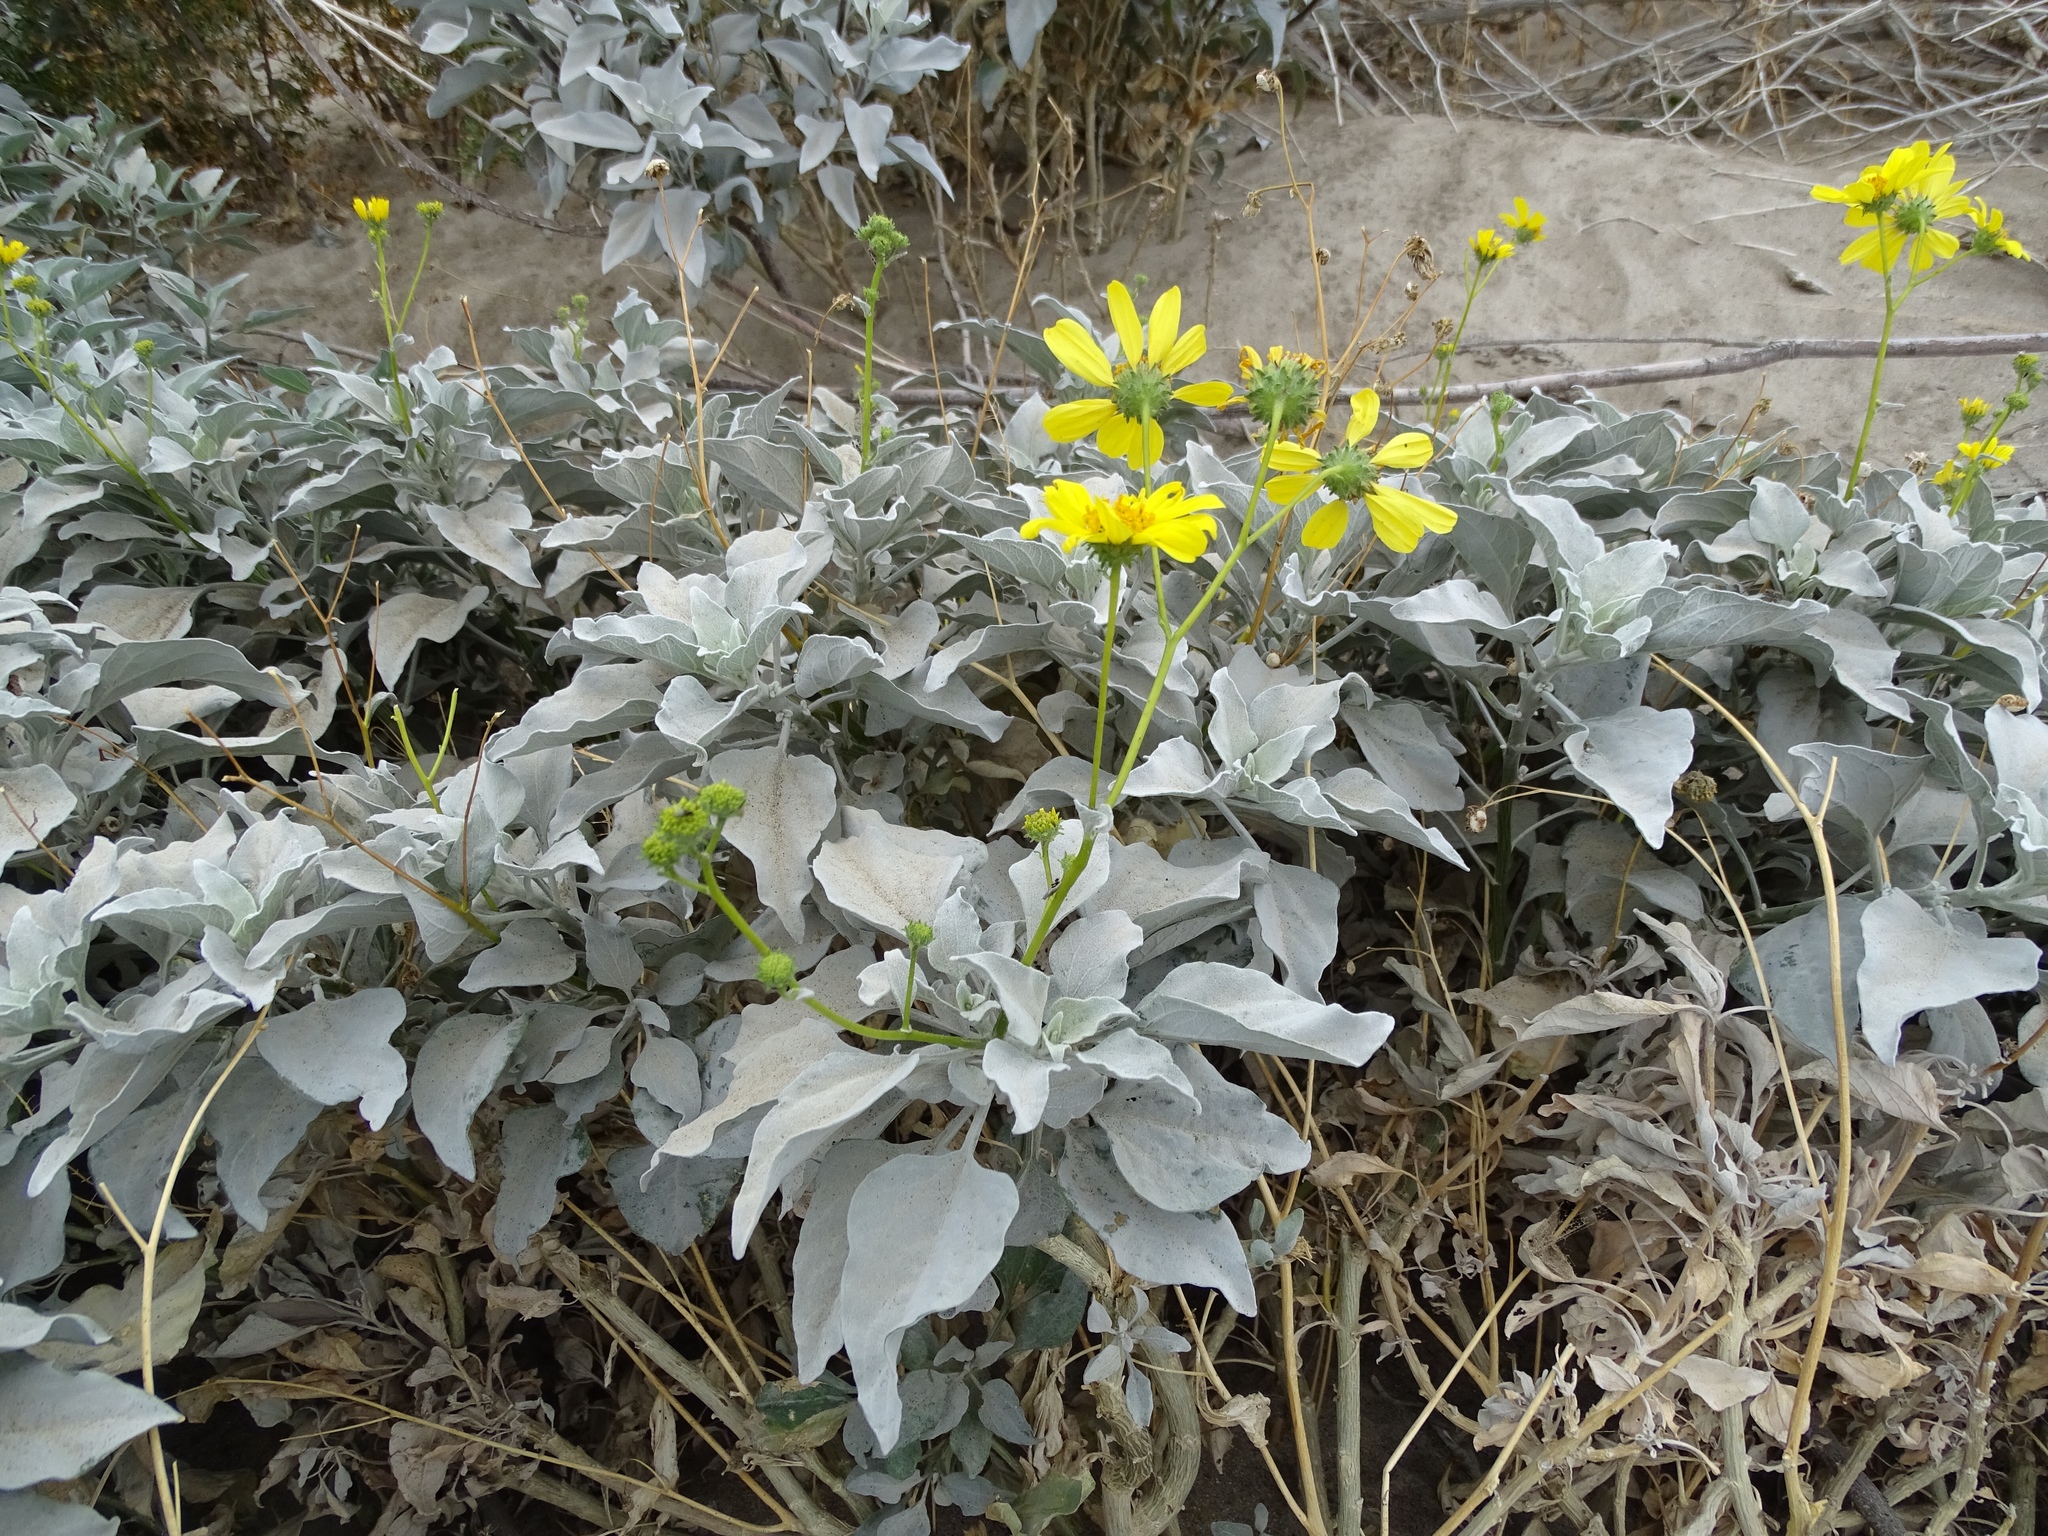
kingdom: Plantae
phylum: Tracheophyta
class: Magnoliopsida
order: Asterales
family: Asteraceae
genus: Encelia
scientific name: Encelia farinosa
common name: Brittlebush
